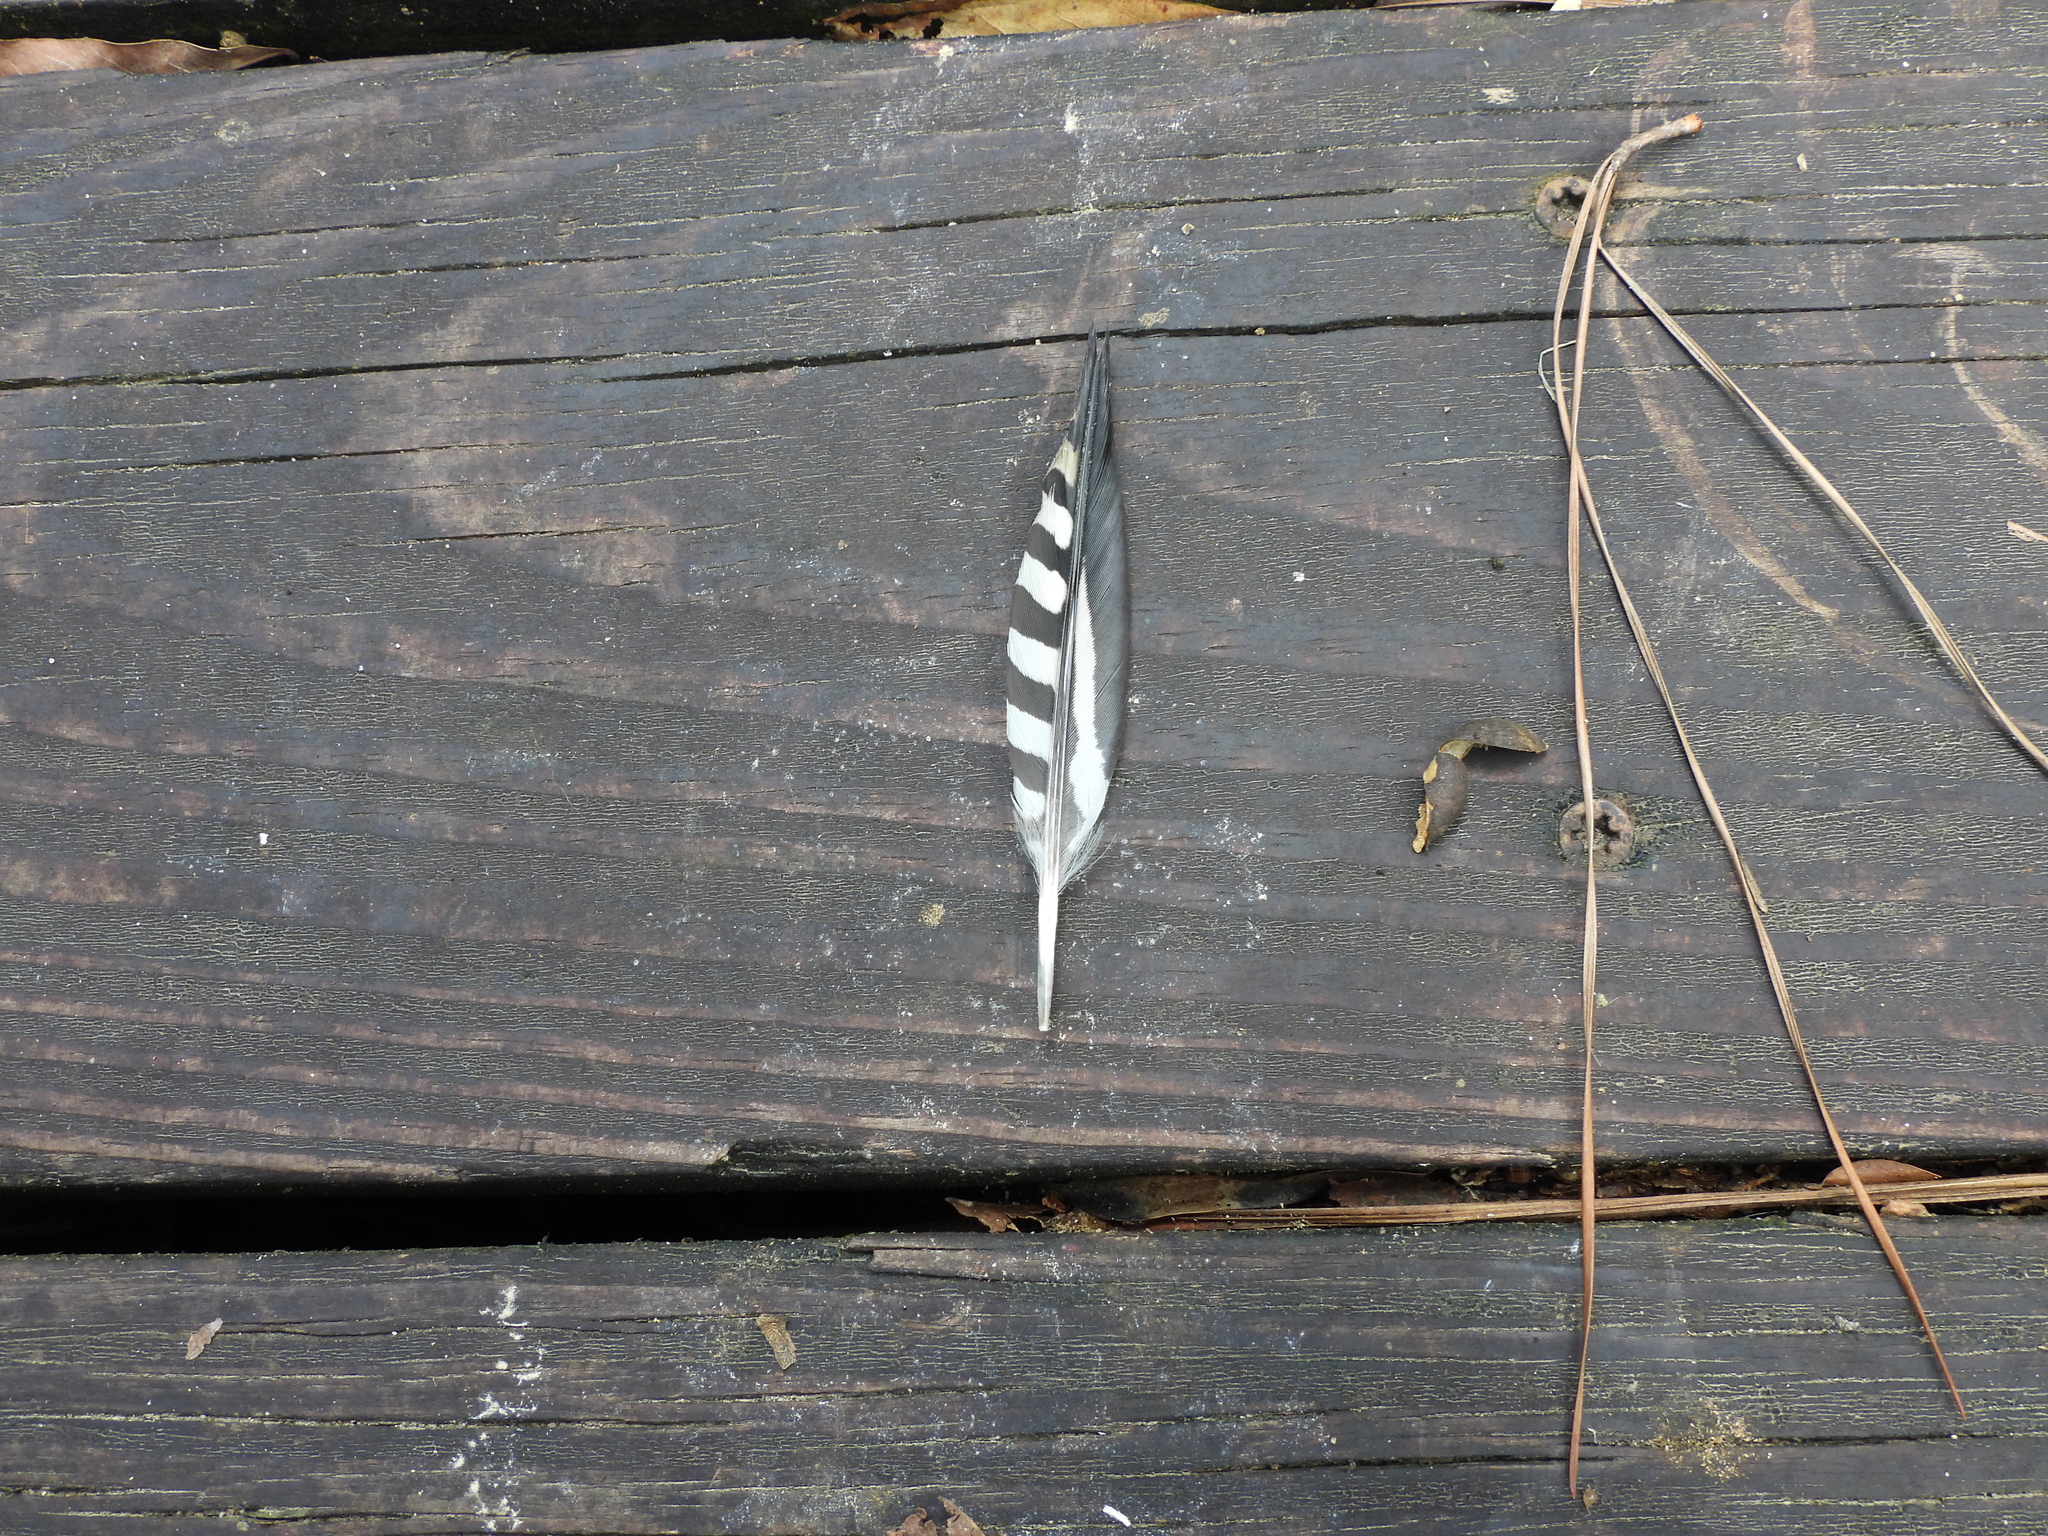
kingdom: Animalia
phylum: Chordata
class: Aves
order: Piciformes
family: Picidae
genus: Melanerpes
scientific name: Melanerpes carolinus
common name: Red-bellied woodpecker
